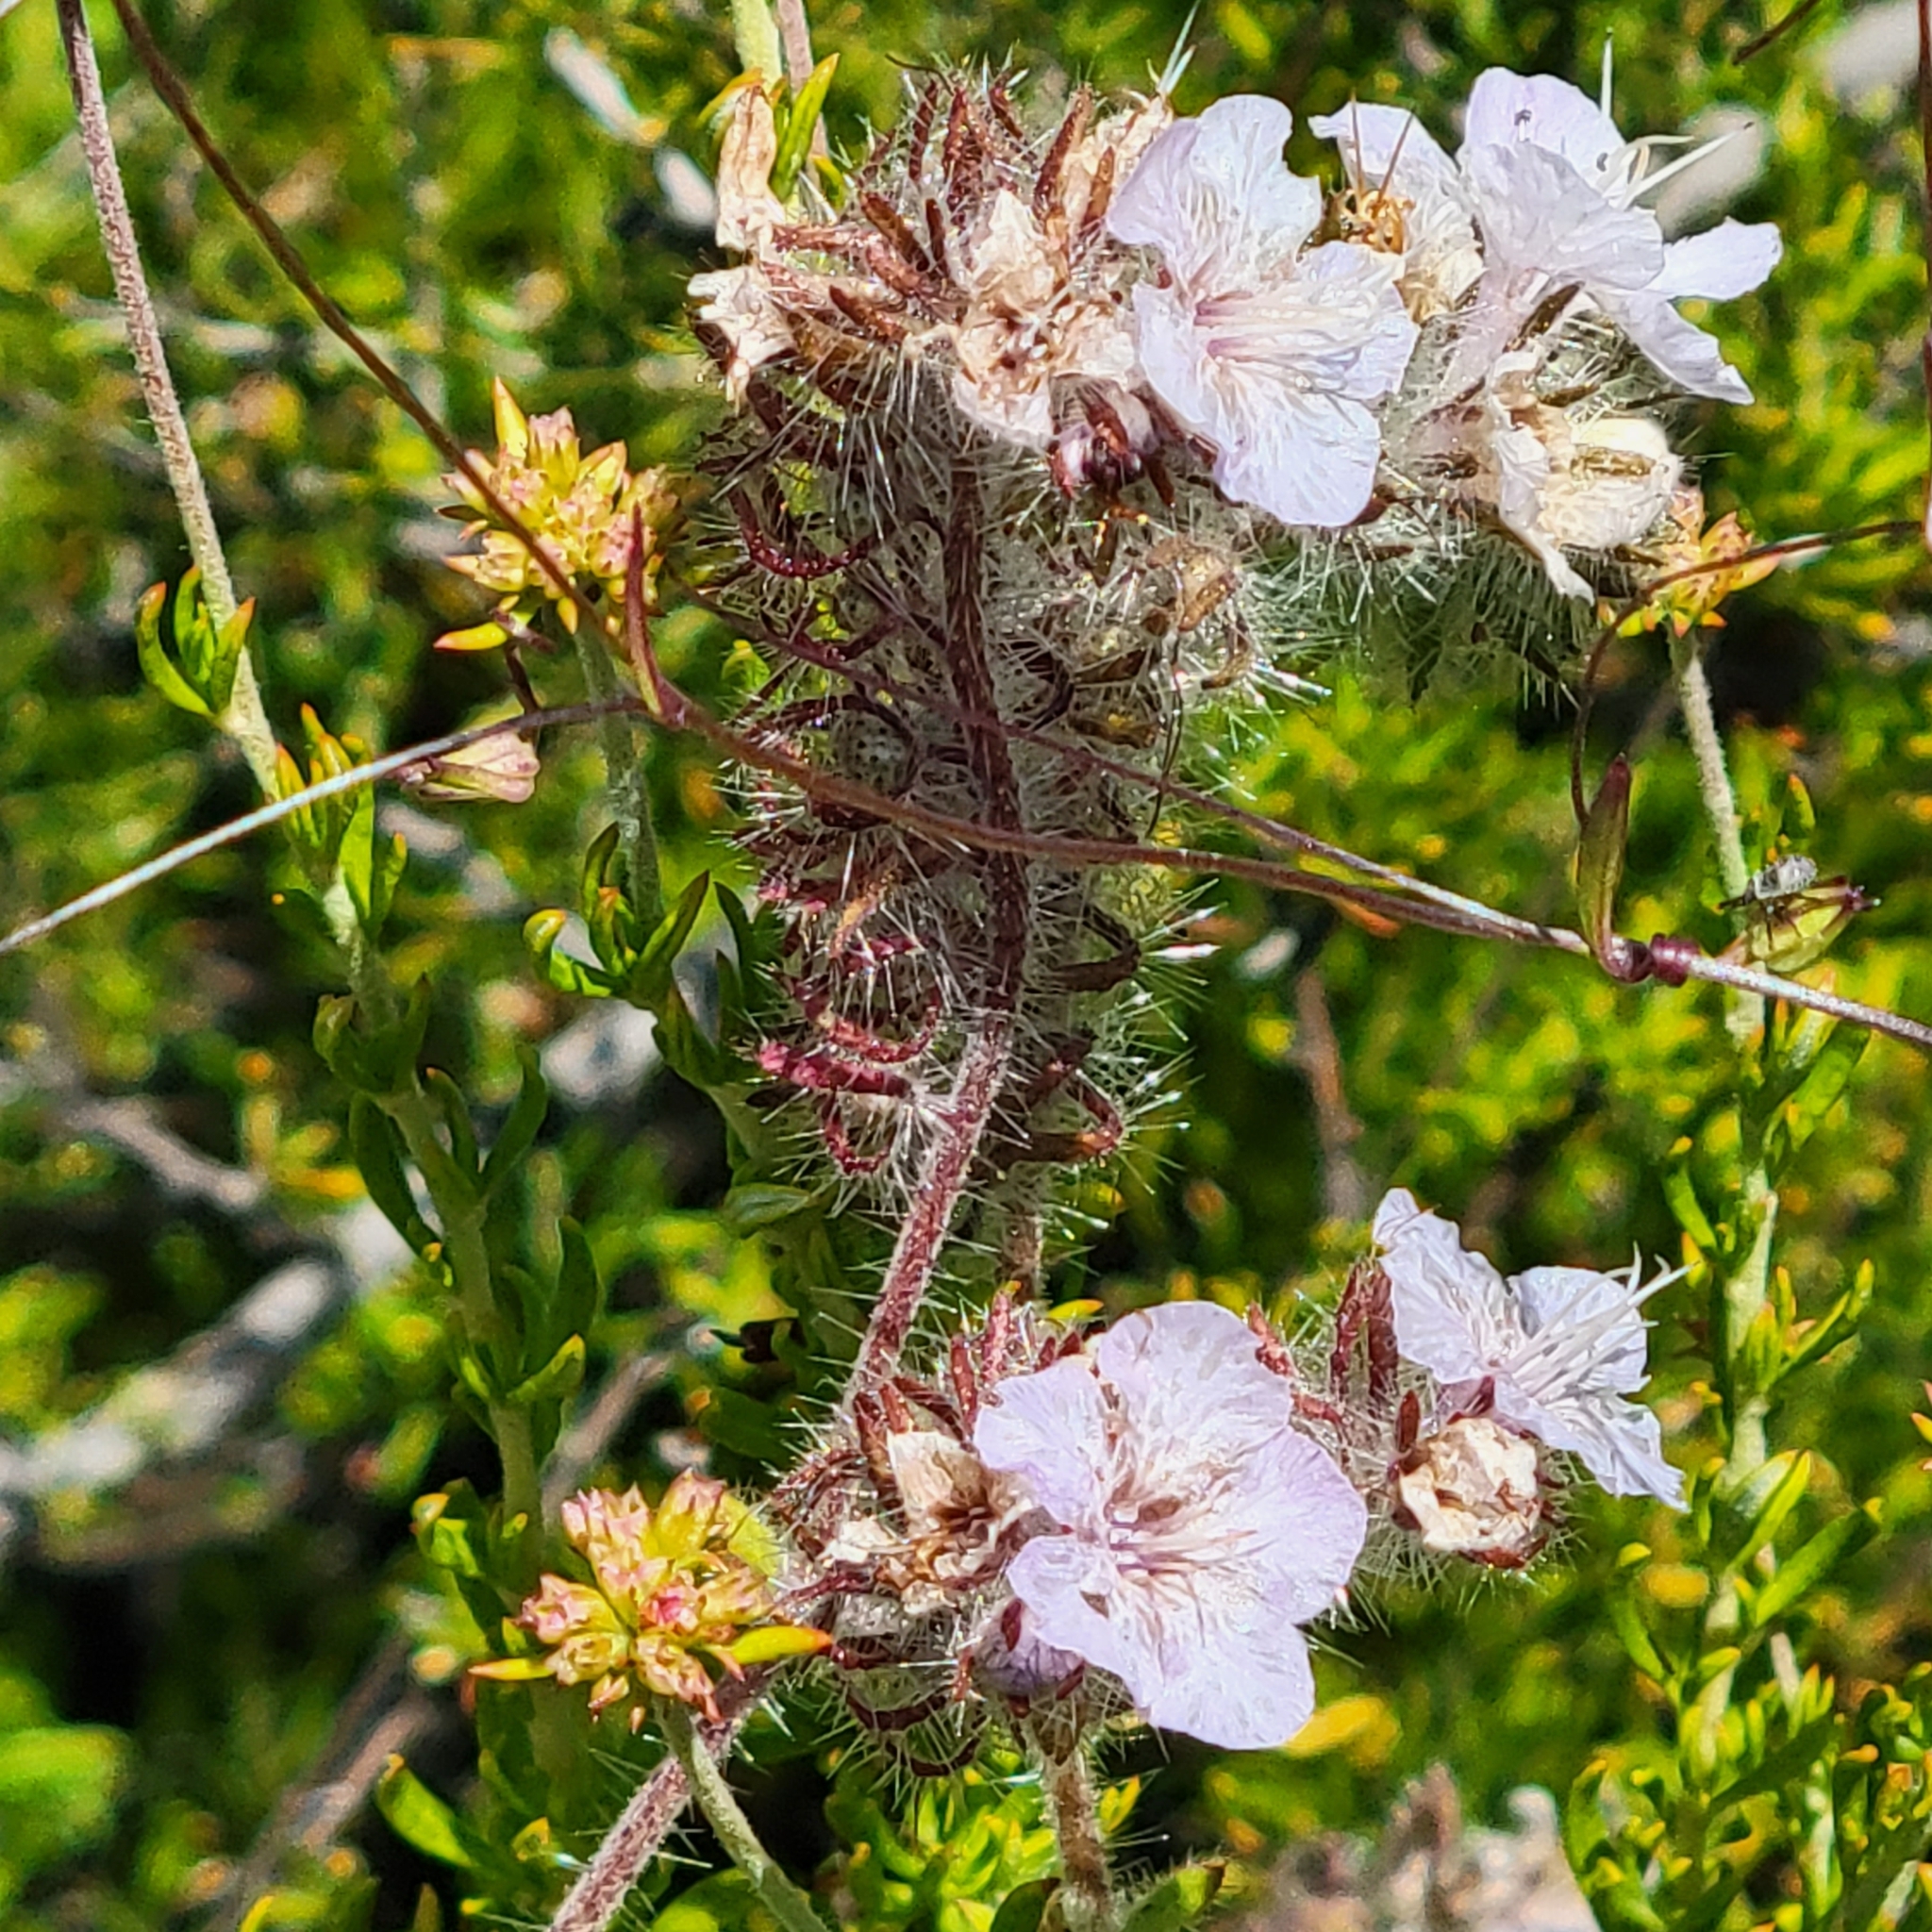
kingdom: Plantae
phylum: Tracheophyta
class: Magnoliopsida
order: Boraginales
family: Hydrophyllaceae
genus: Phacelia
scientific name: Phacelia cicutaria
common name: Caterpillar phacelia
